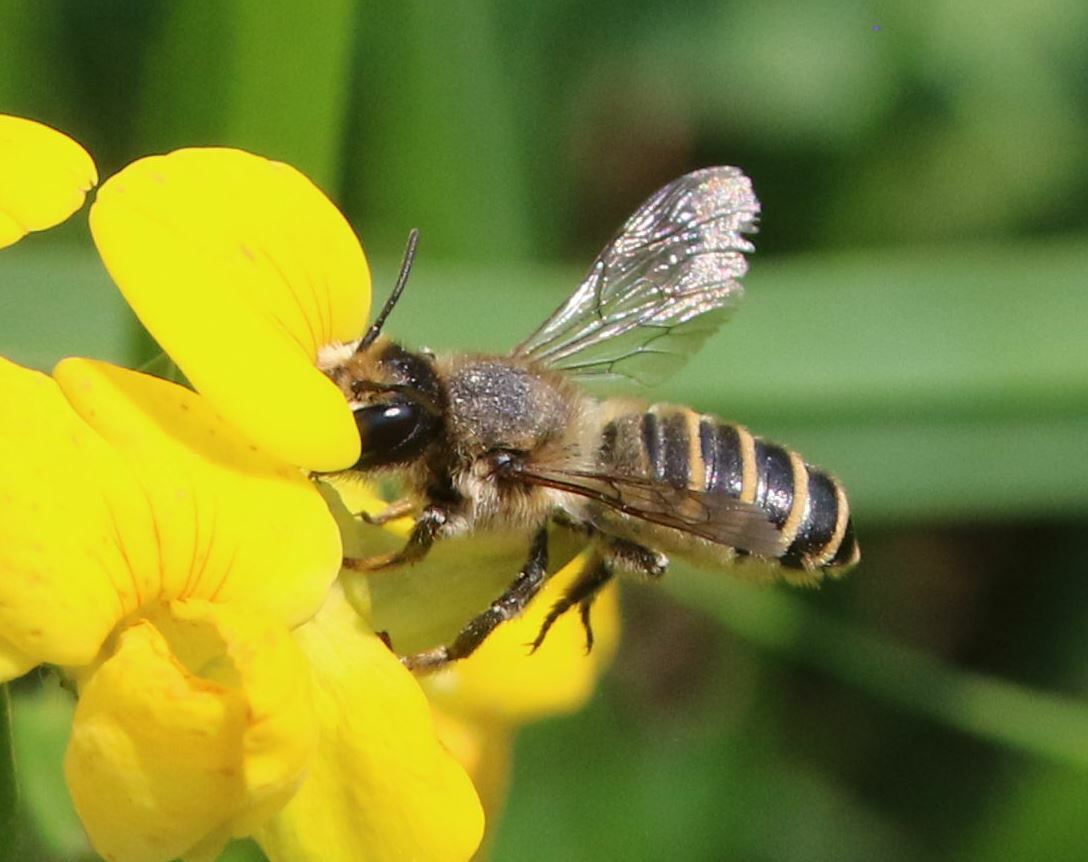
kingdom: Animalia
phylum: Arthropoda
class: Insecta
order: Hymenoptera
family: Megachilidae
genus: Megachile
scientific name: Megachile ericetorum
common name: Leafcutter bee
